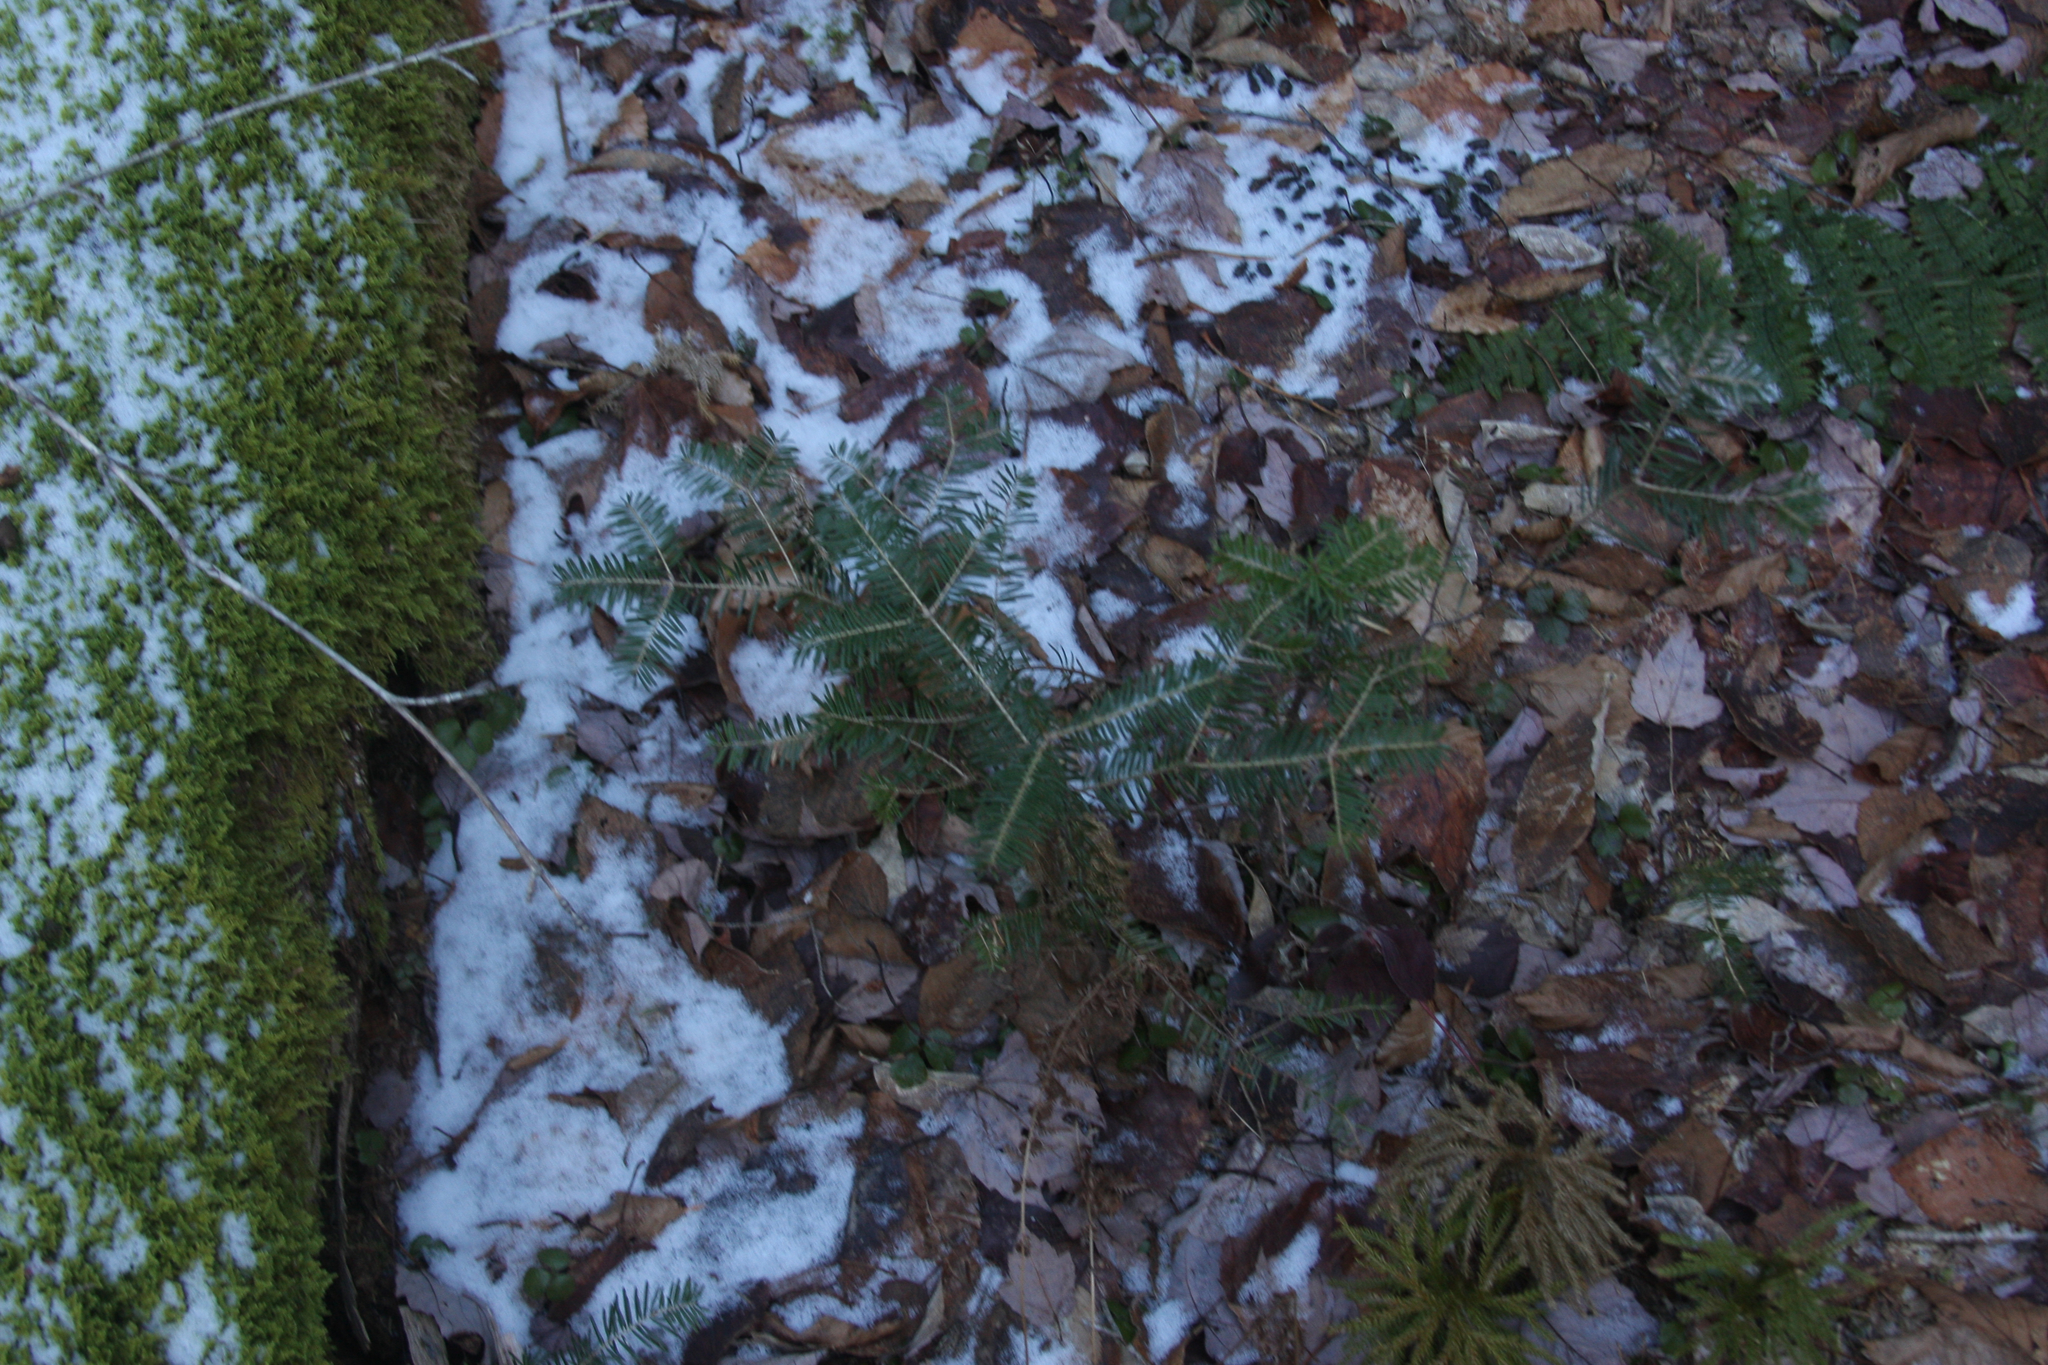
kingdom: Plantae
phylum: Tracheophyta
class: Pinopsida
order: Pinales
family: Pinaceae
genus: Abies
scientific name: Abies balsamea
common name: Balsam fir
